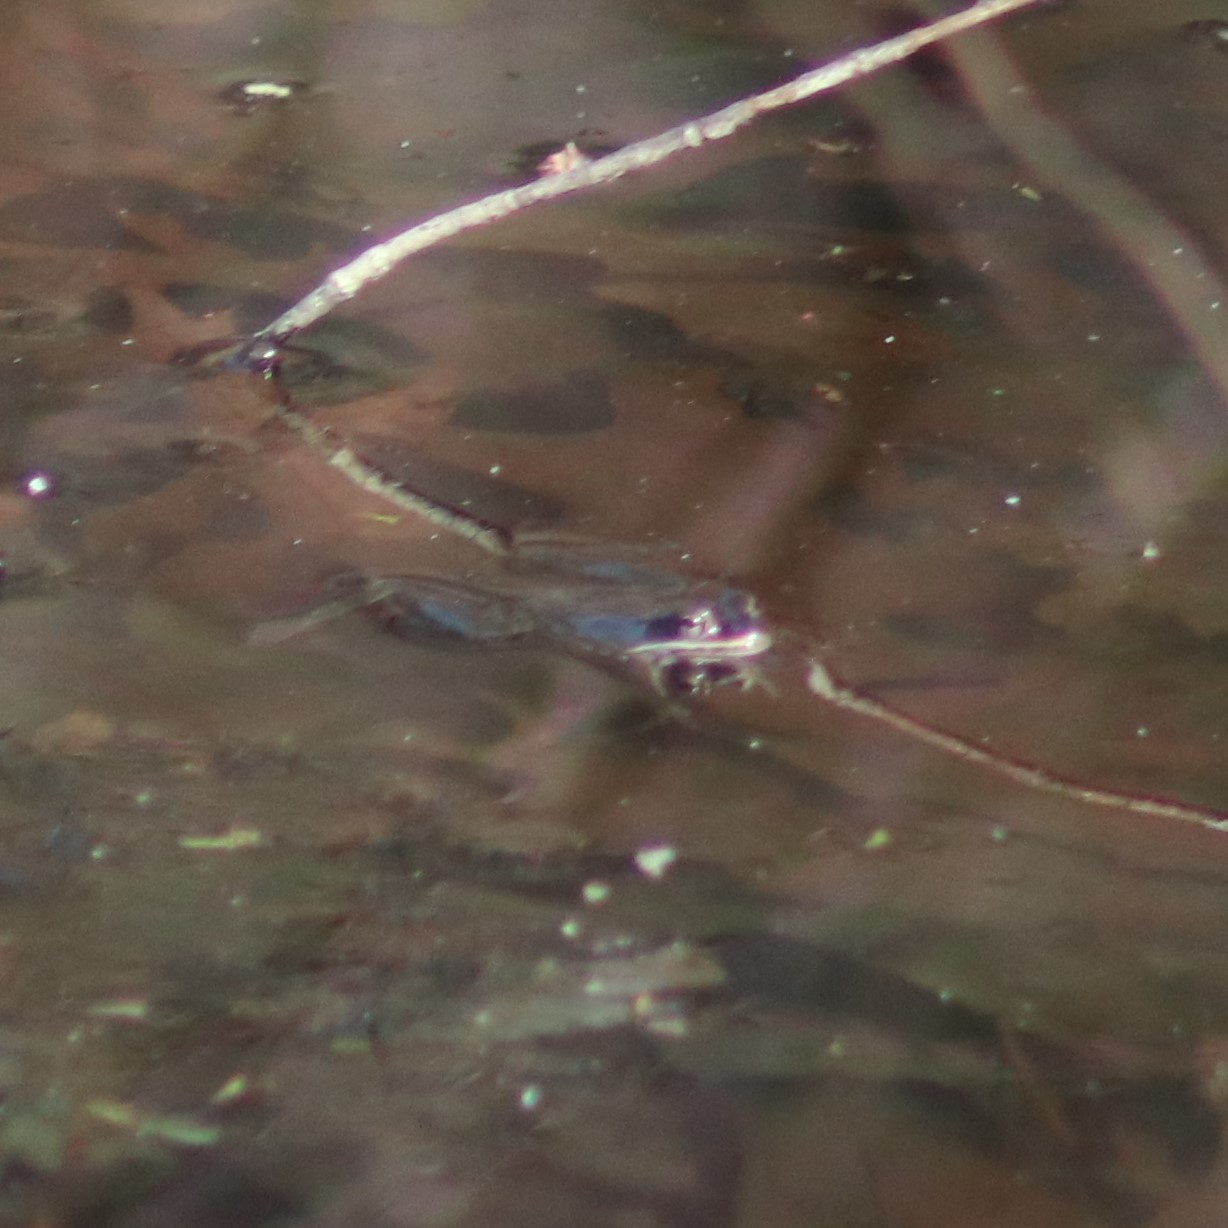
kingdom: Animalia
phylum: Chordata
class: Amphibia
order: Anura
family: Ranidae
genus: Lithobates
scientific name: Lithobates sylvaticus
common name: Wood frog
